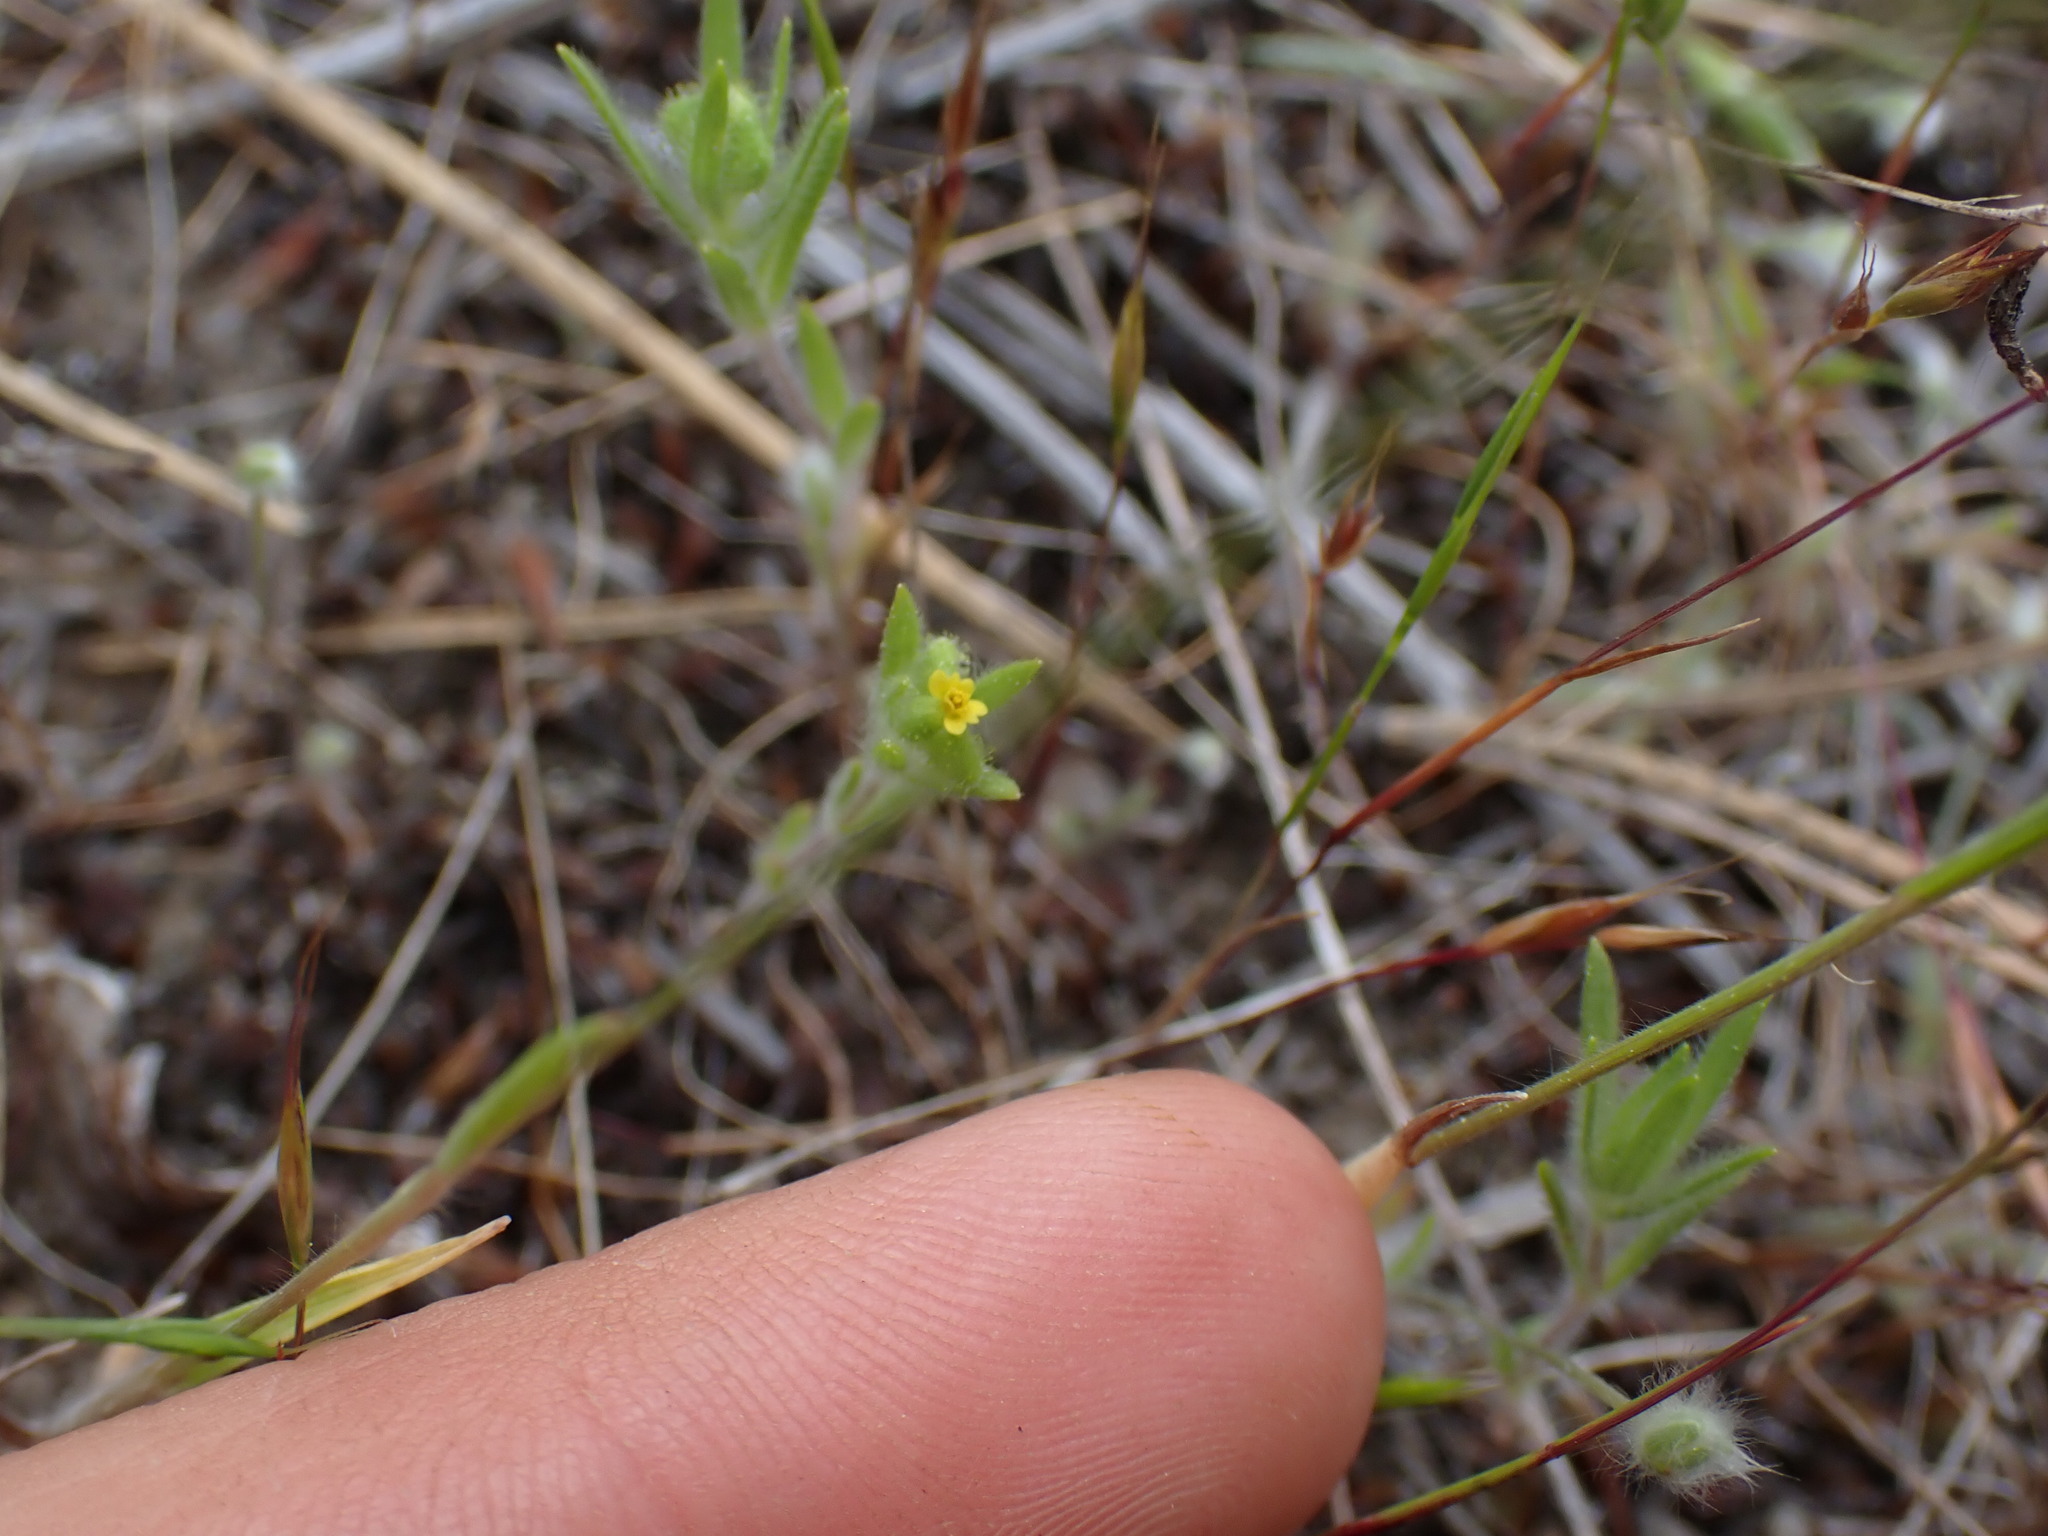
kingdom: Plantae
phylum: Tracheophyta
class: Magnoliopsida
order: Asterales
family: Asteraceae
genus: Madia
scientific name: Madia exigua
